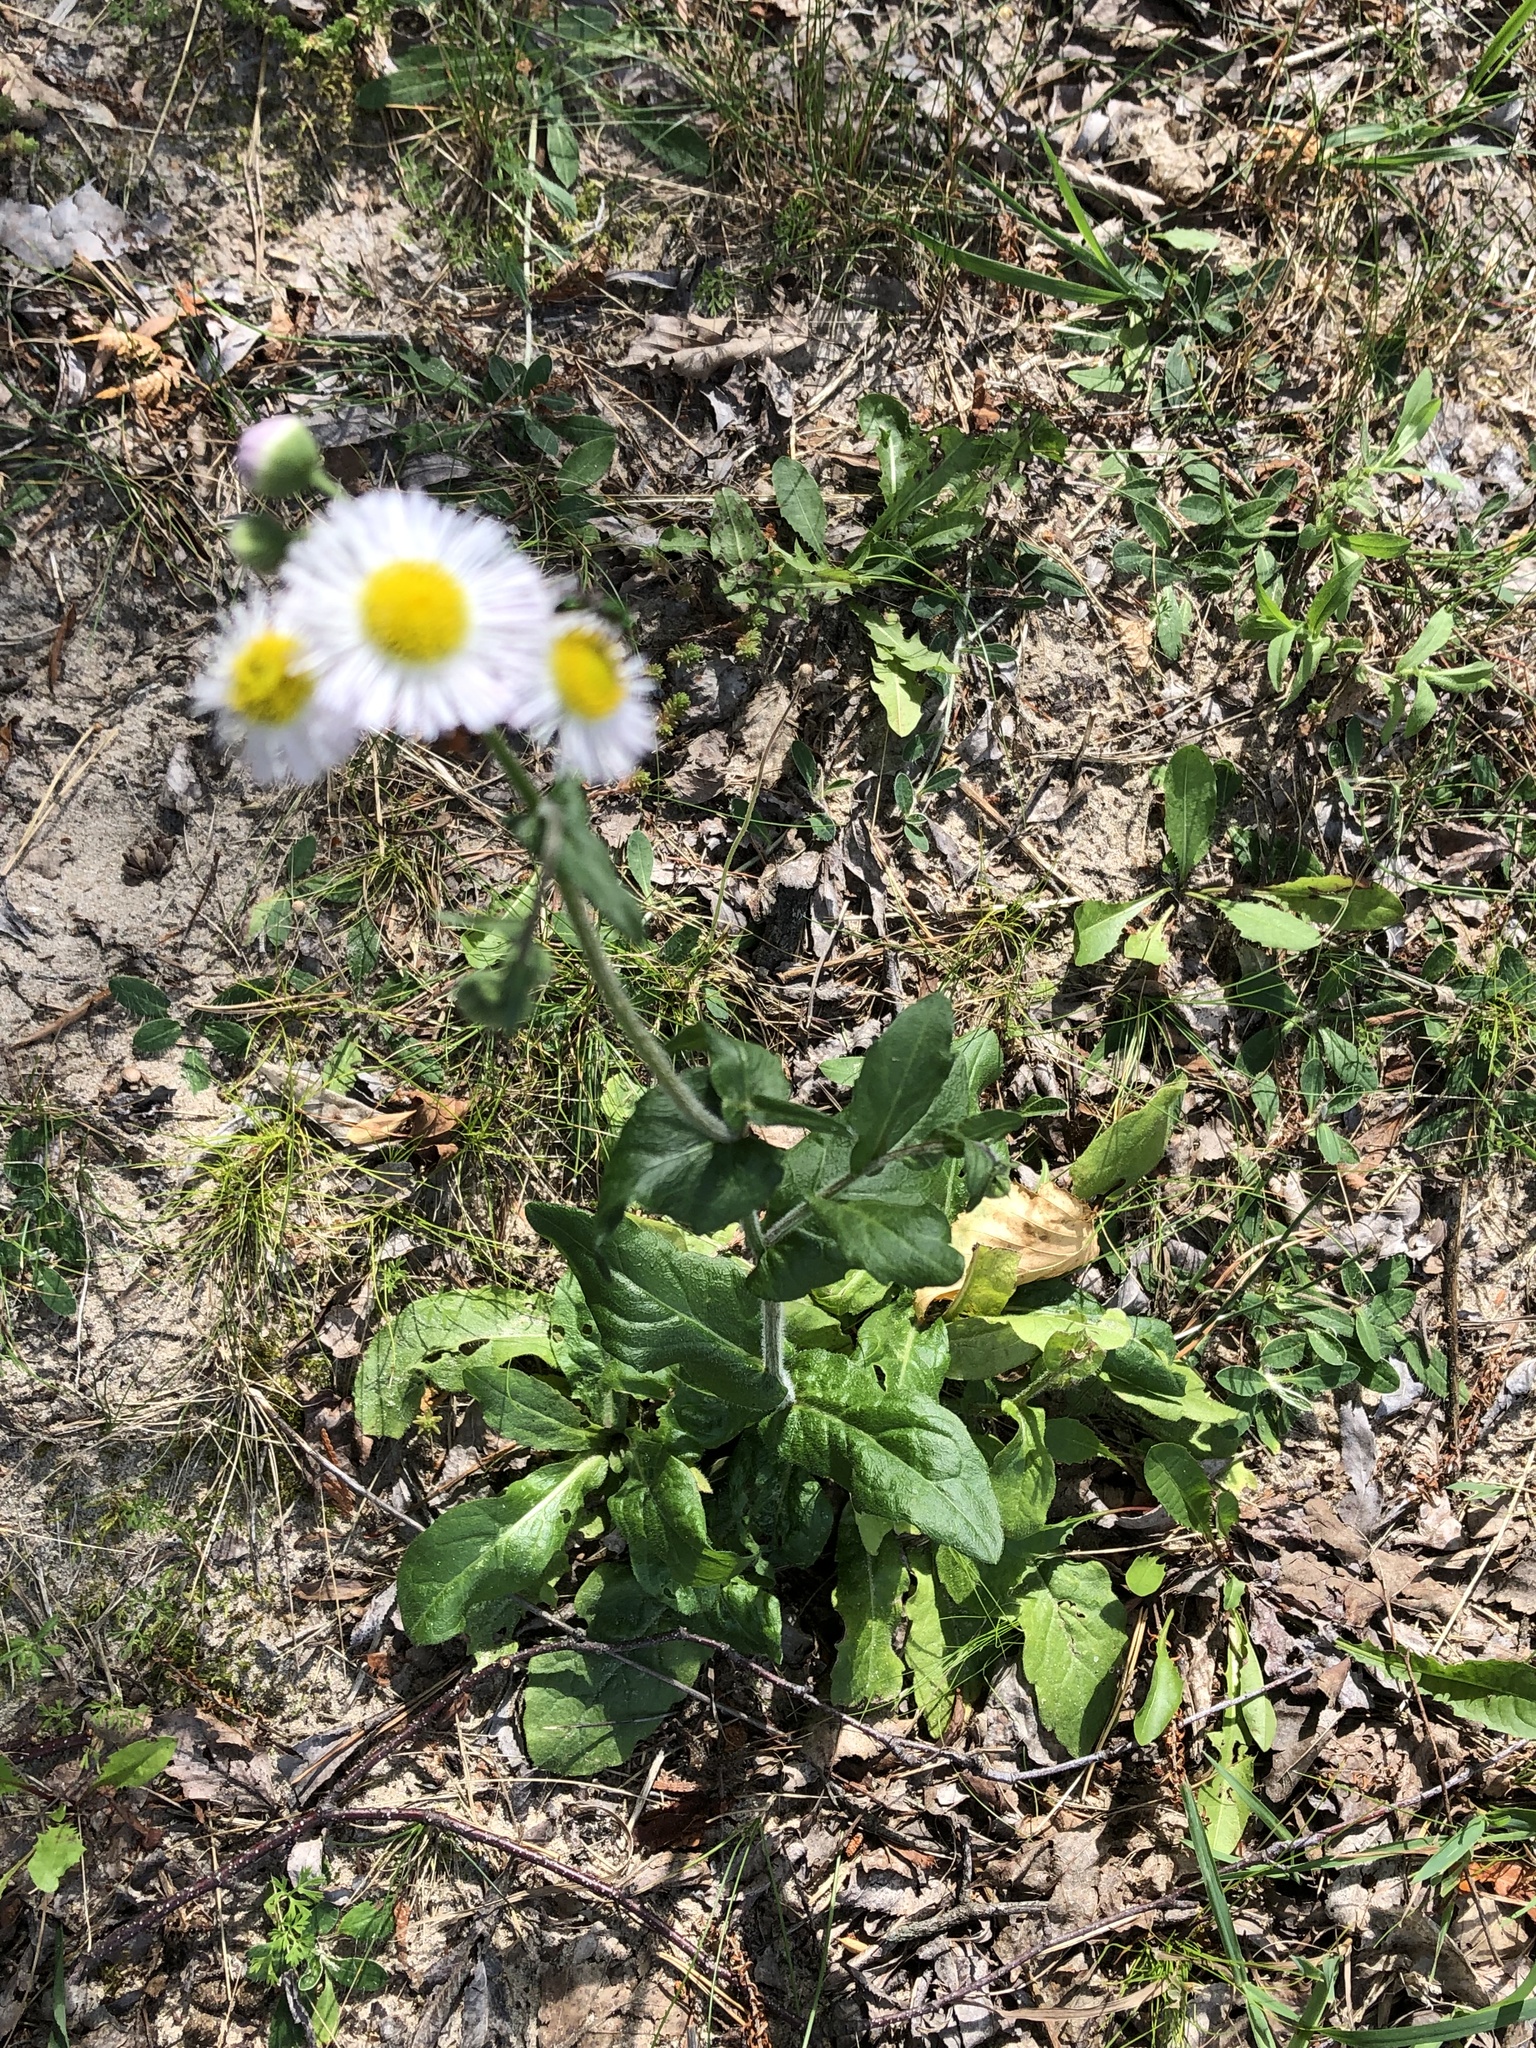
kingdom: Plantae
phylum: Tracheophyta
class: Magnoliopsida
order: Asterales
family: Asteraceae
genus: Erigeron
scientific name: Erigeron philadelphicus
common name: Robin's-plantain
